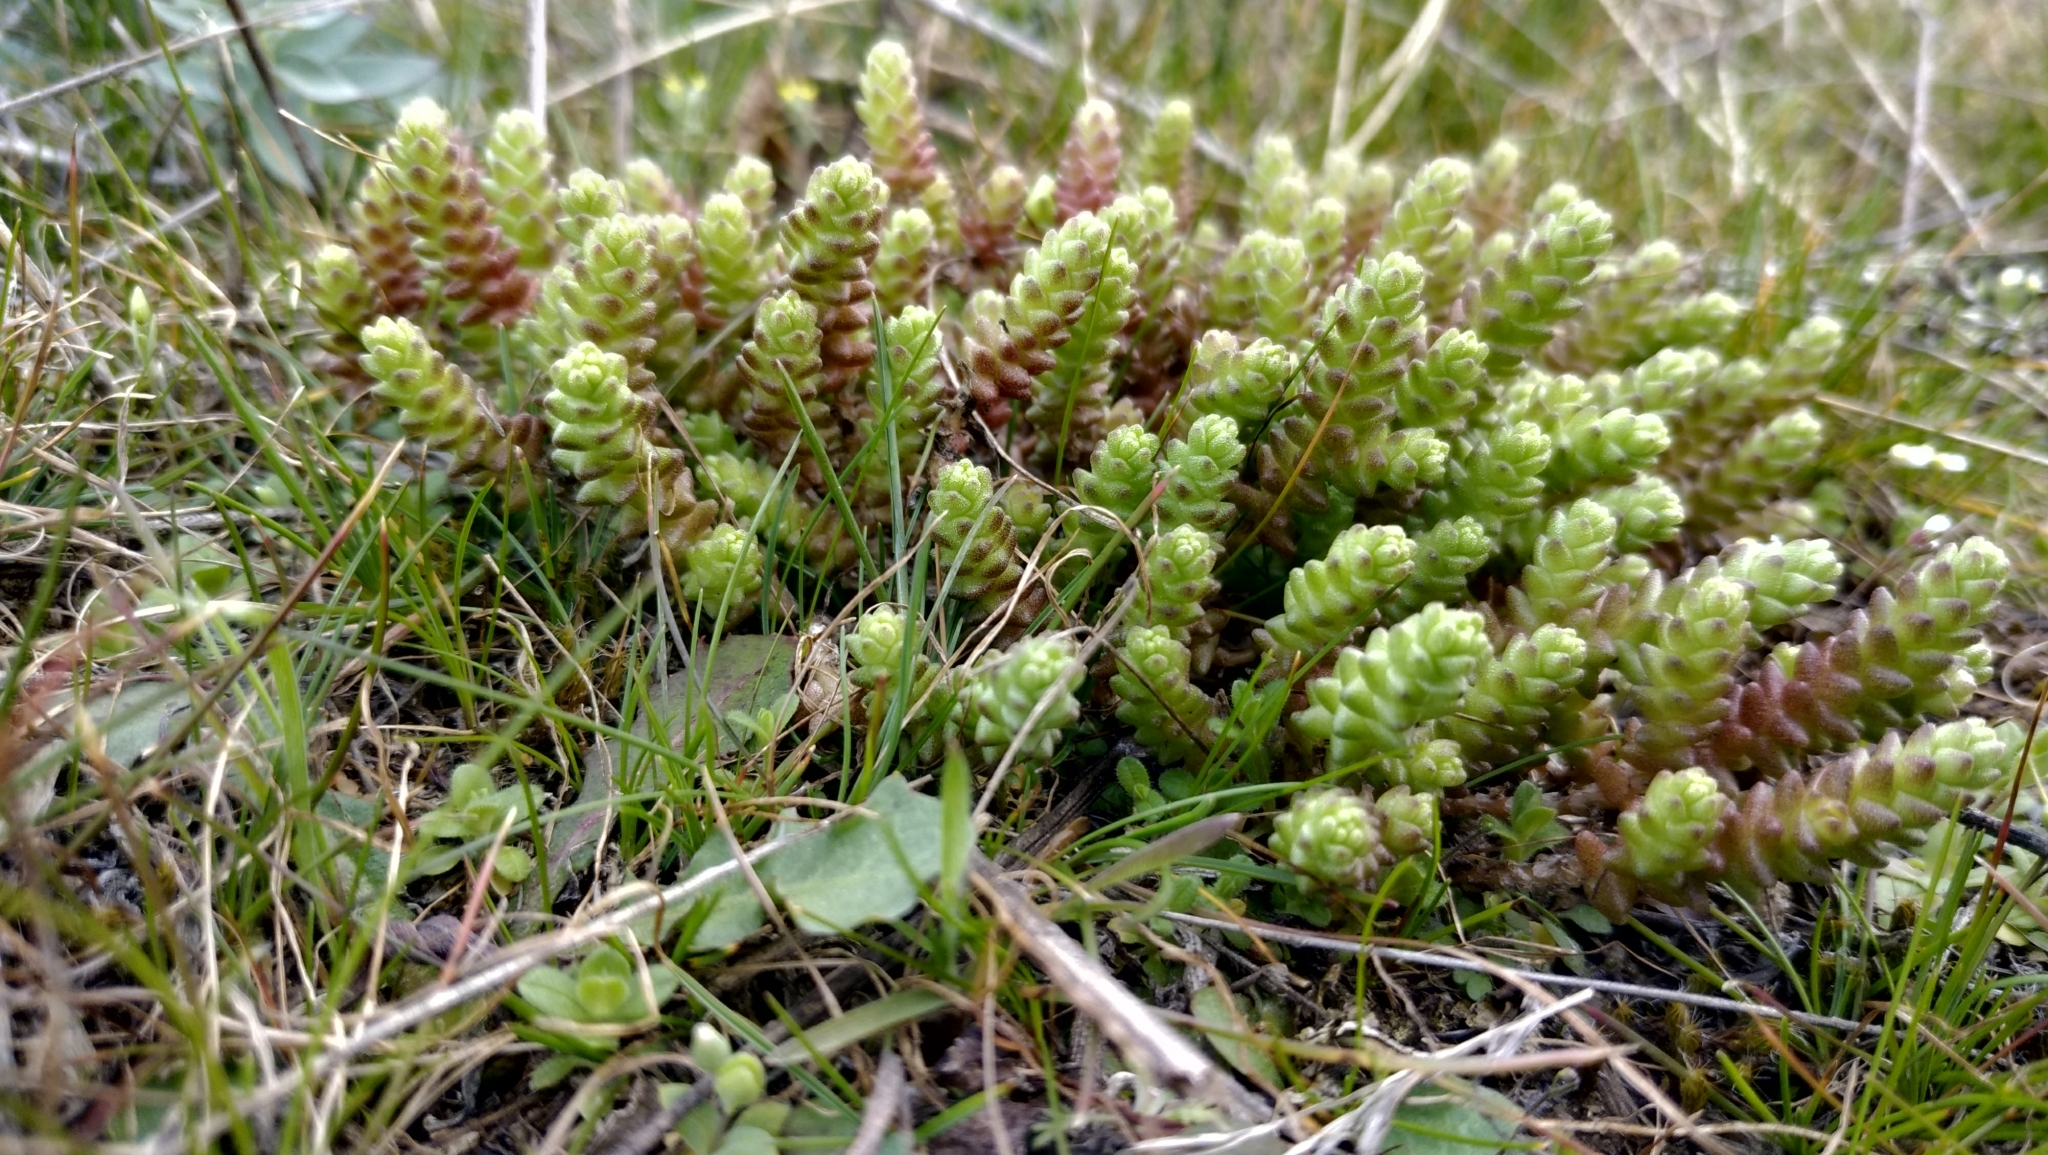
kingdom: Plantae
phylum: Tracheophyta
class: Magnoliopsida
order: Saxifragales
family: Crassulaceae
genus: Sedum
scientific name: Sedum acre
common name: Biting stonecrop
